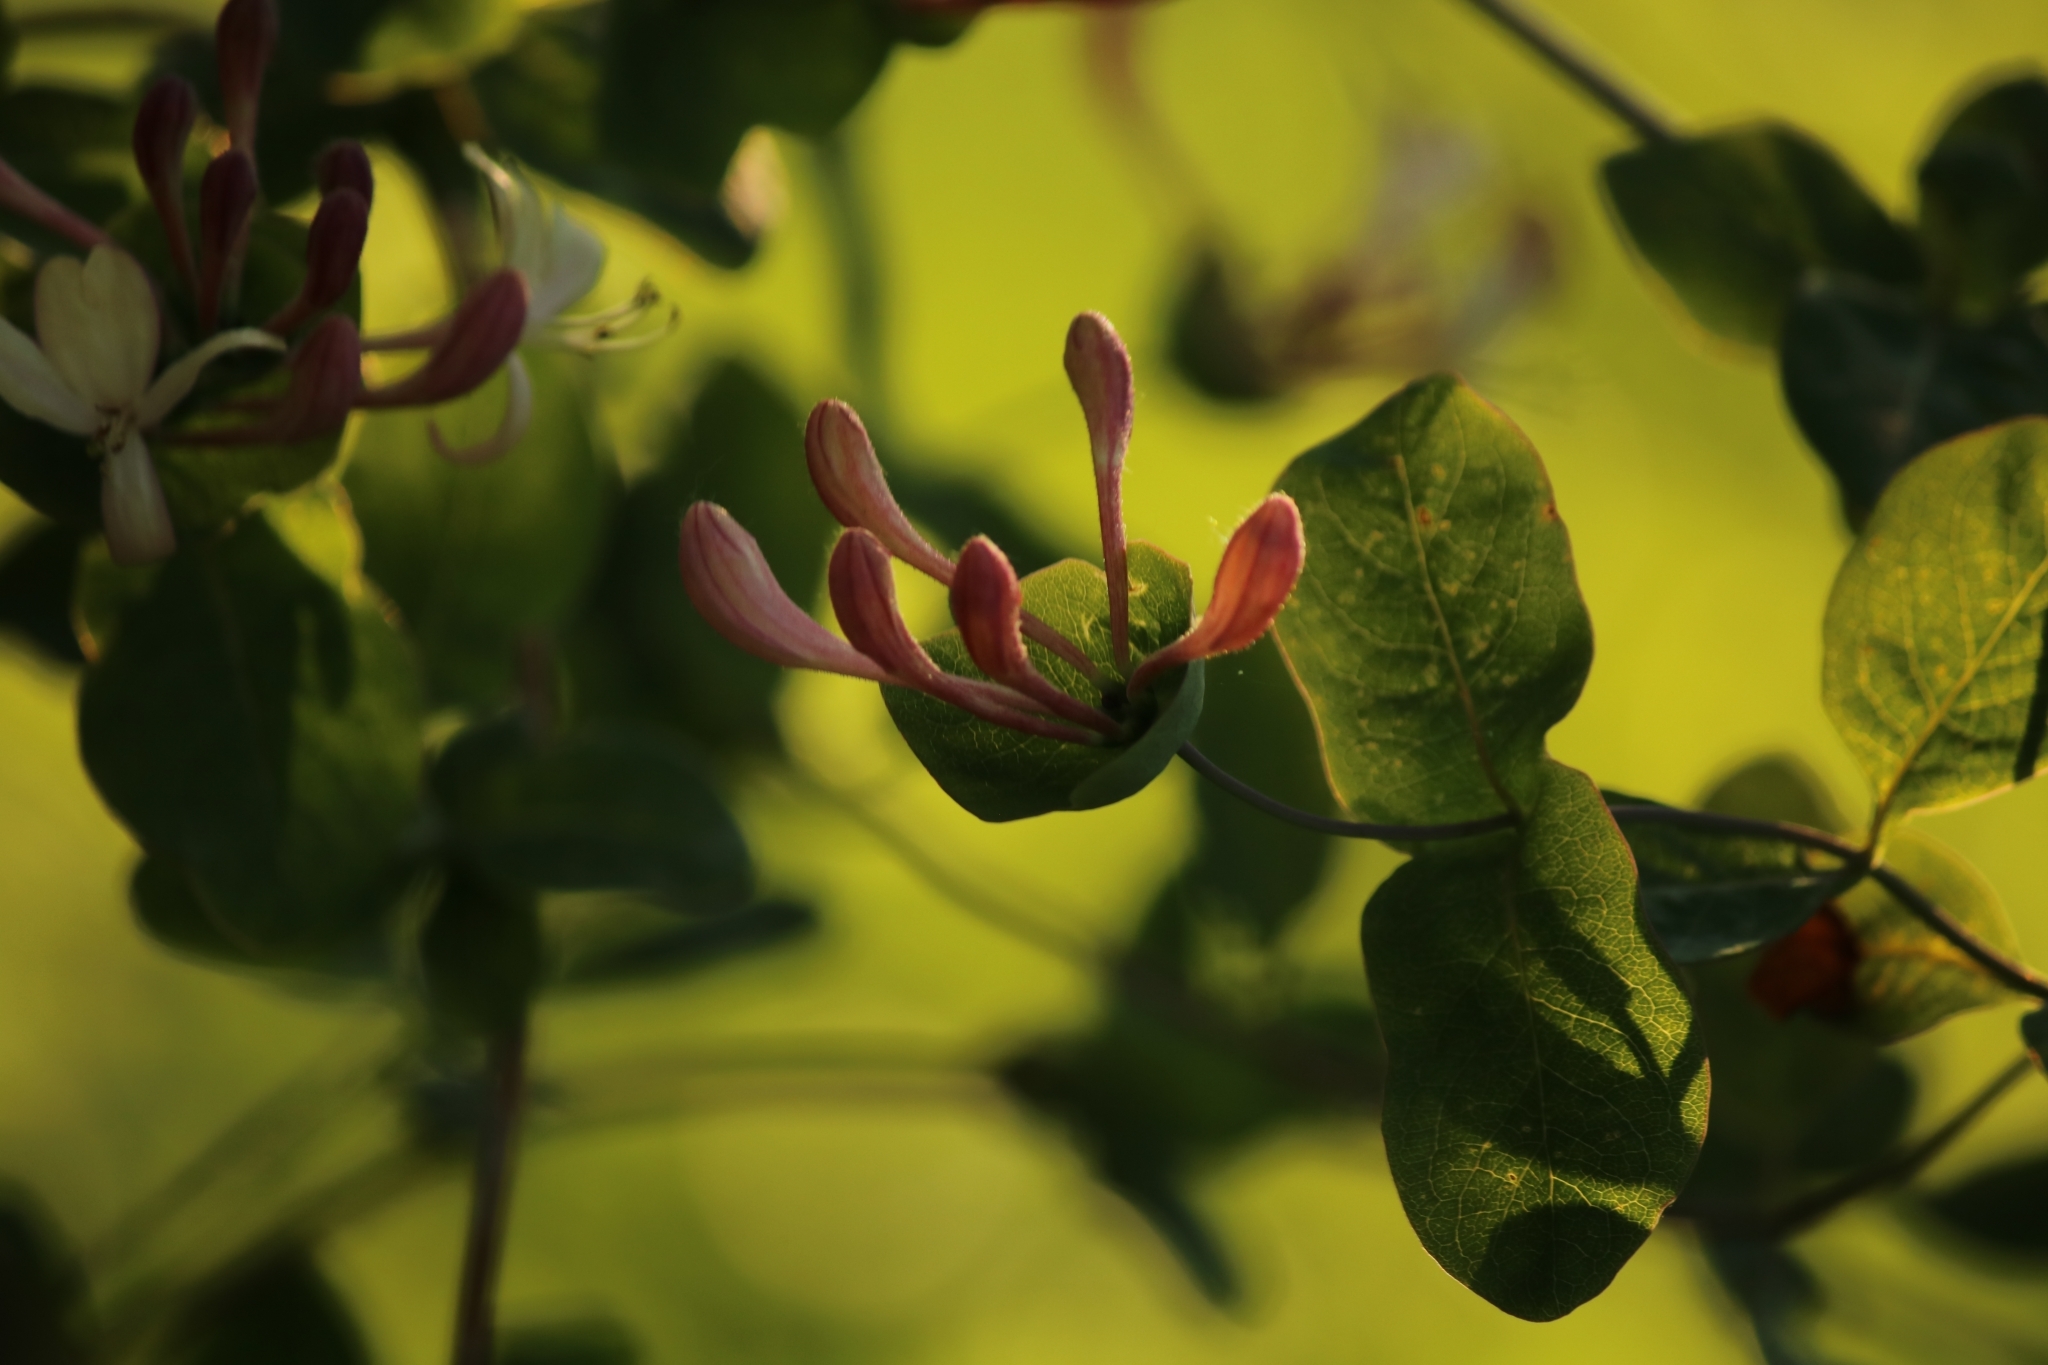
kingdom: Plantae
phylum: Tracheophyta
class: Magnoliopsida
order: Dipsacales
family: Caprifoliaceae
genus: Lonicera
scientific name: Lonicera caprifolium
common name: Perfoliate honeysuckle
